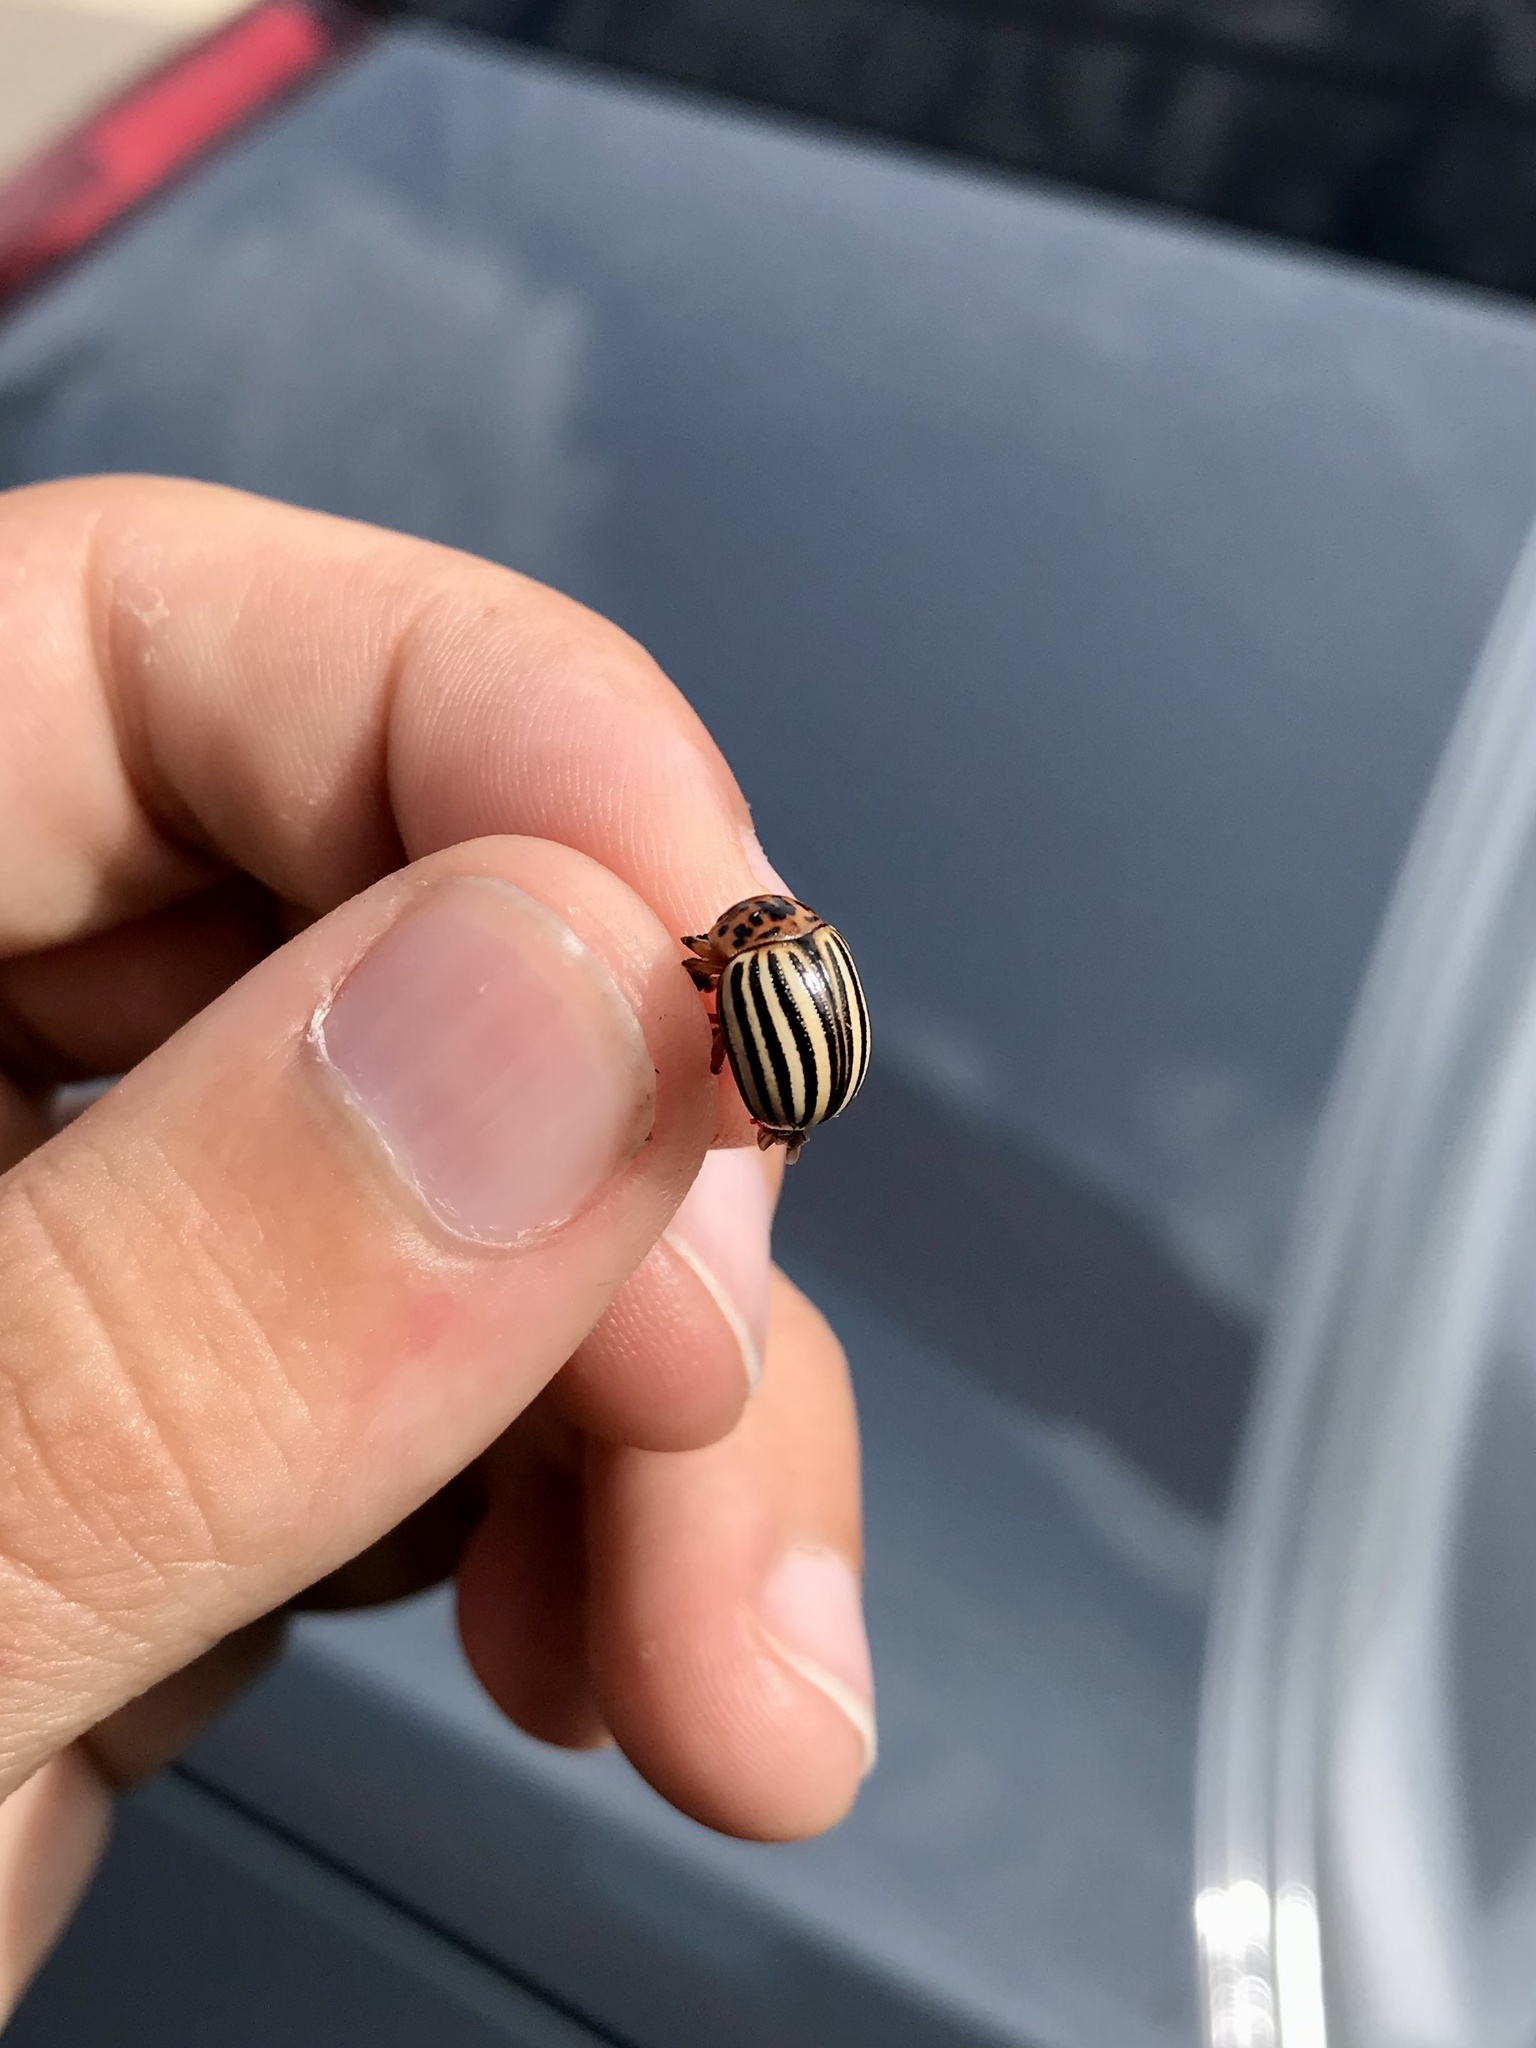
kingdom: Animalia
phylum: Arthropoda
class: Insecta
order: Coleoptera
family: Chrysomelidae
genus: Leptinotarsa
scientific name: Leptinotarsa decemlineata
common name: Colorado potato beetle
